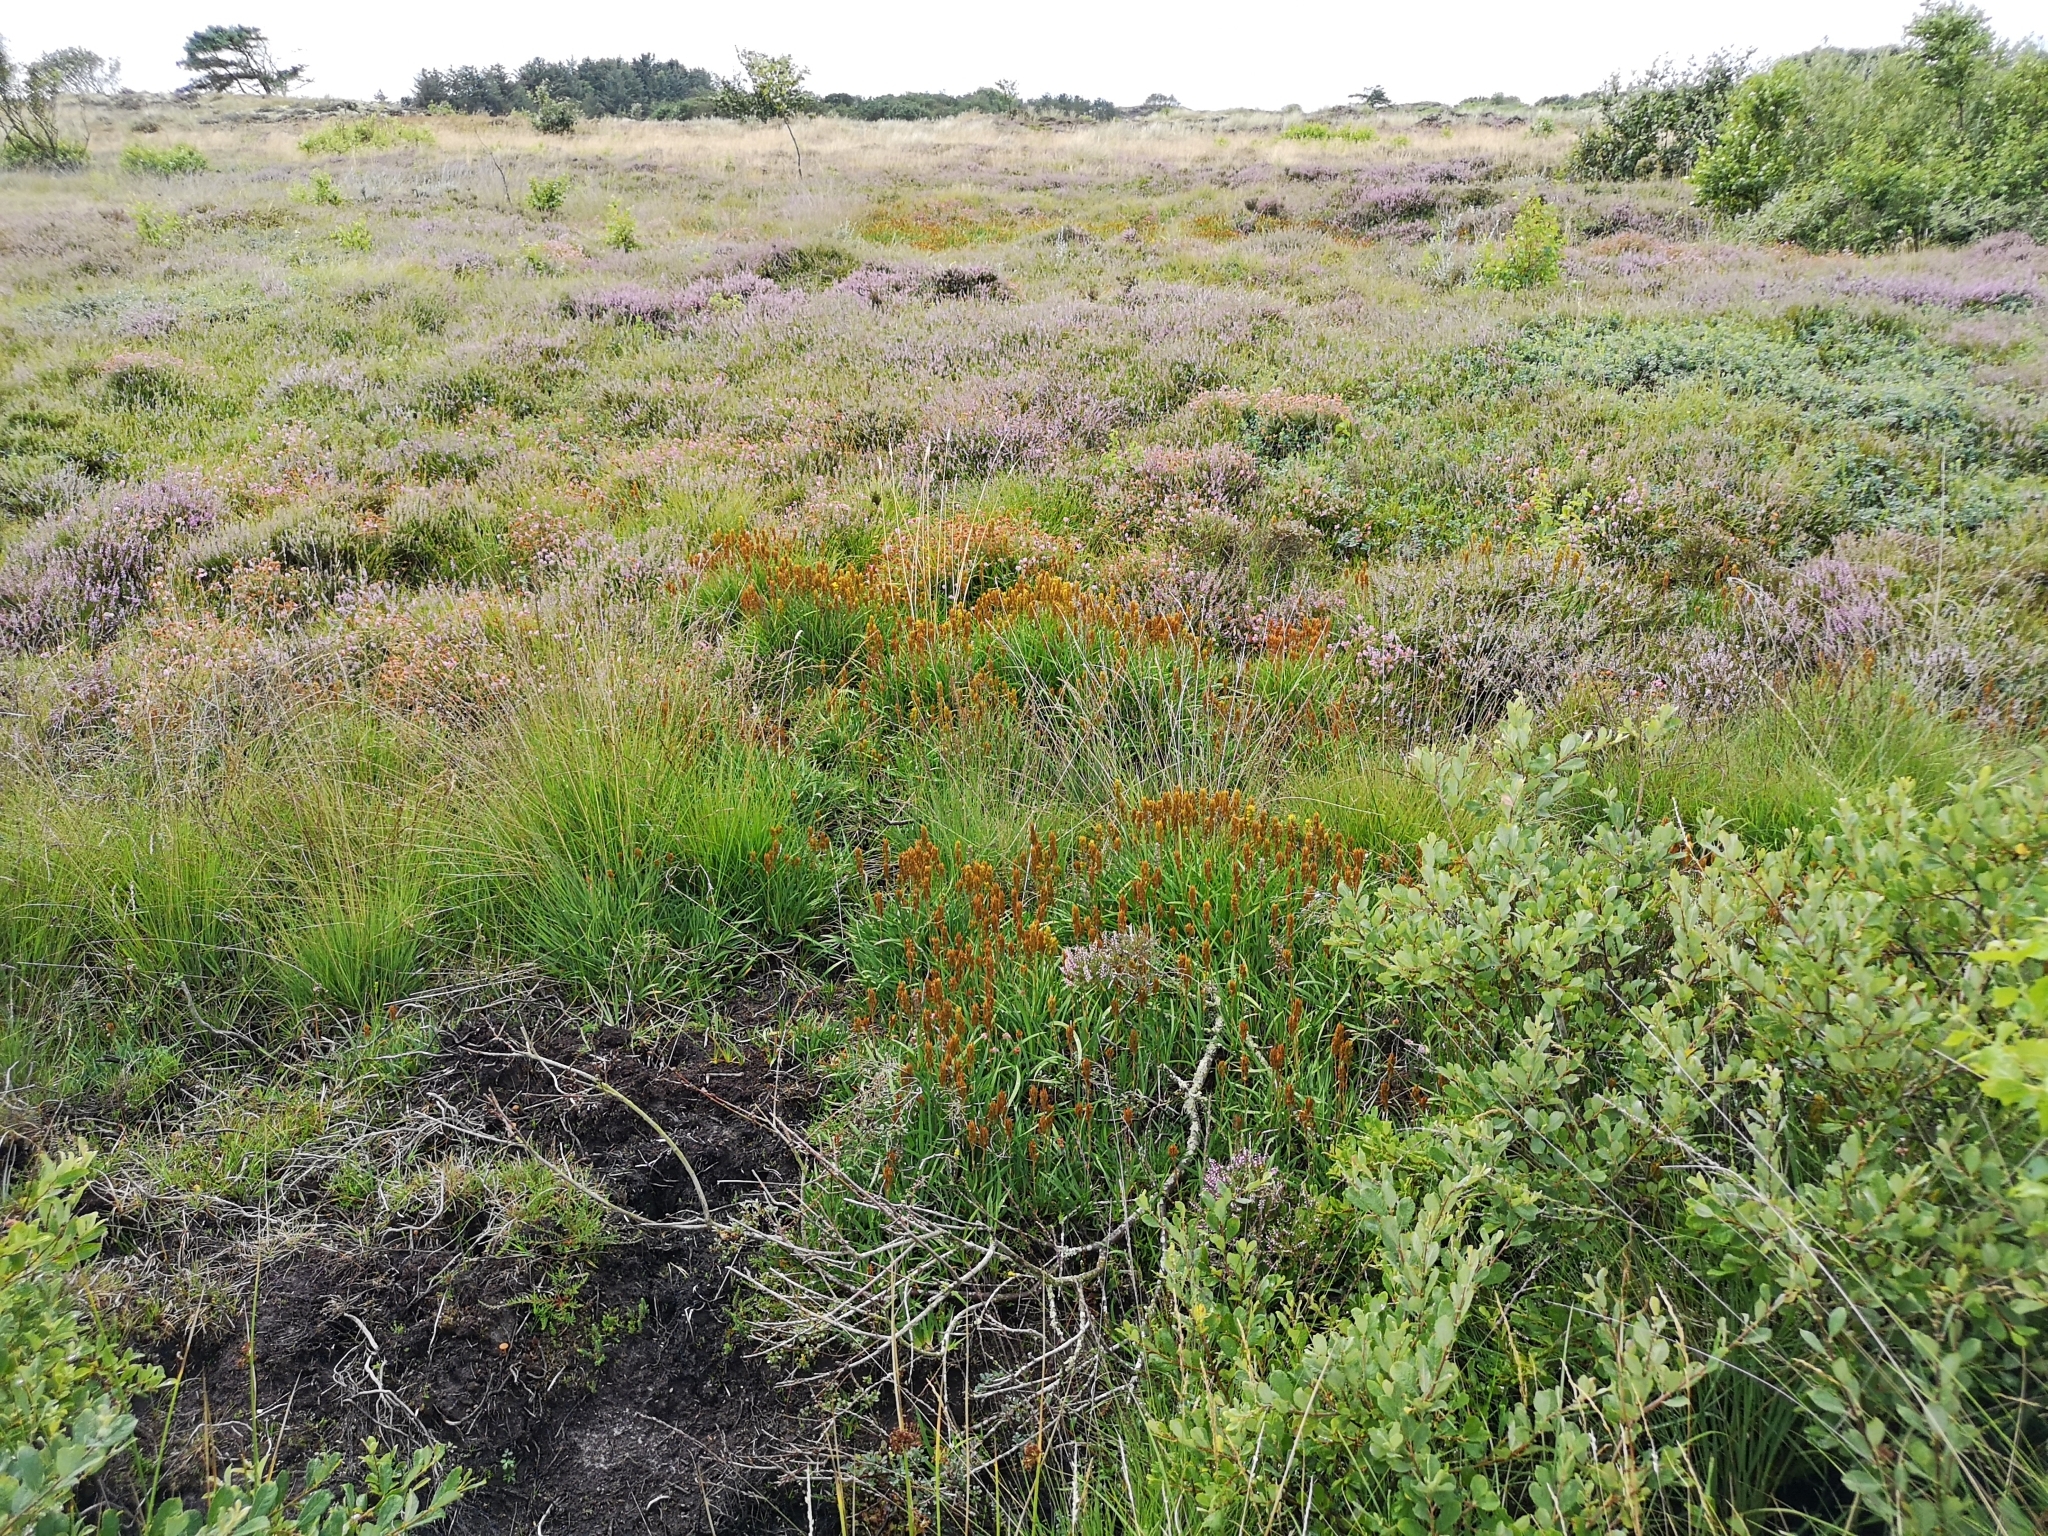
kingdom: Plantae
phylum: Tracheophyta
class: Liliopsida
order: Dioscoreales
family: Nartheciaceae
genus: Narthecium
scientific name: Narthecium ossifragum
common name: Bog asphodel
